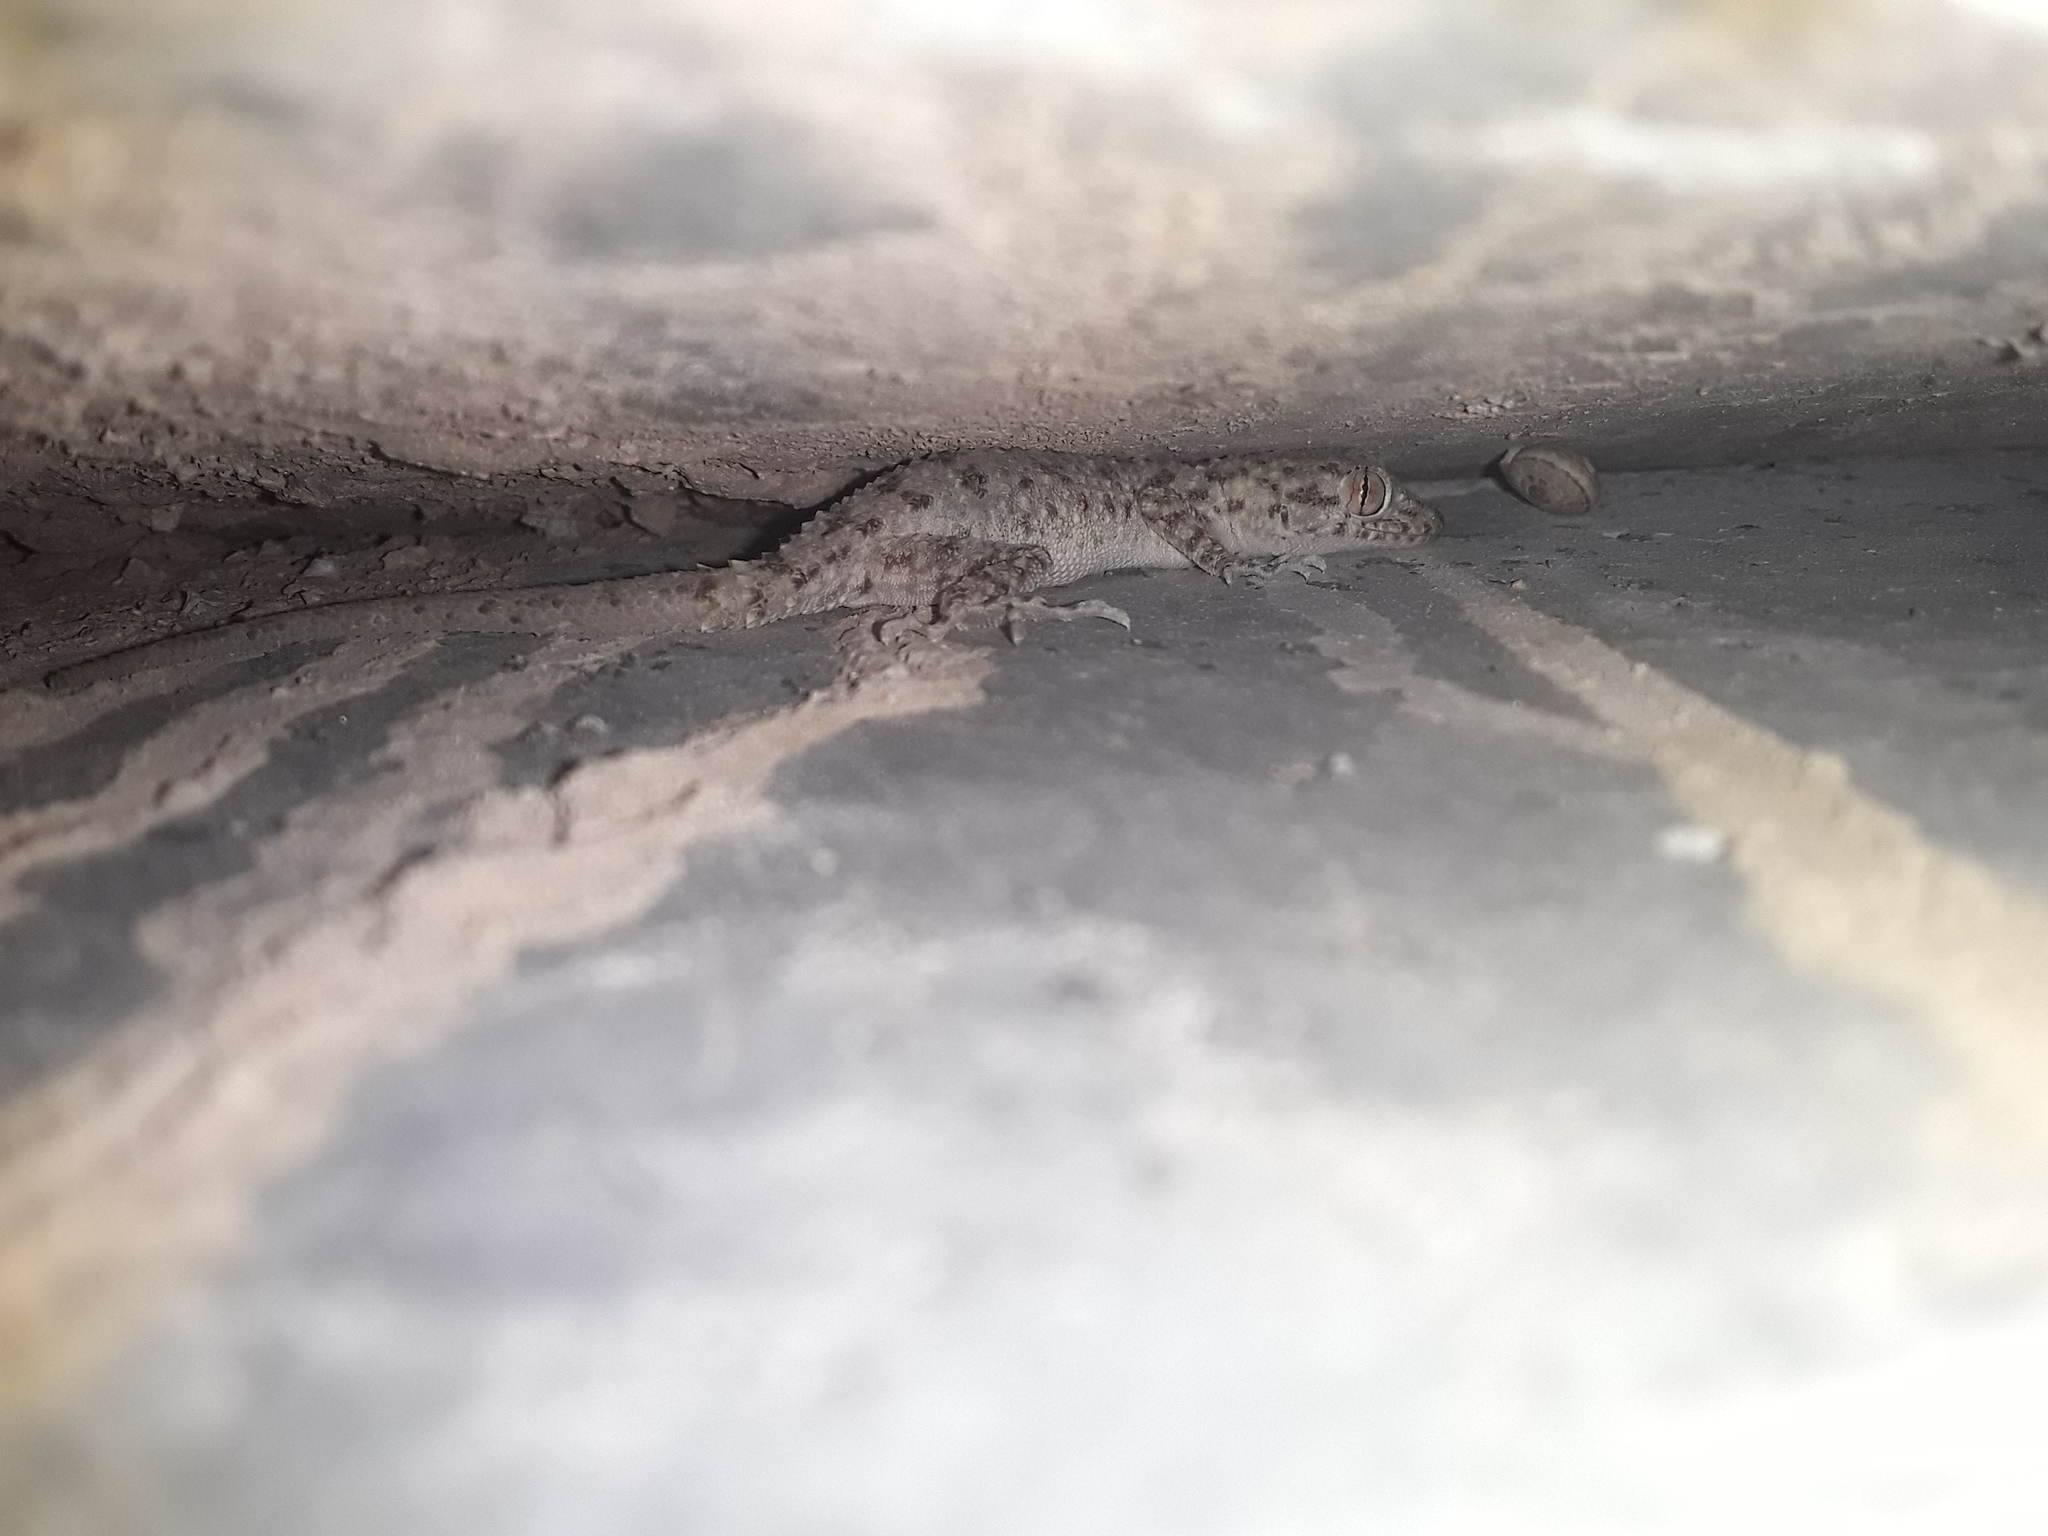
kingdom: Animalia
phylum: Chordata
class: Squamata
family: Gekkonidae
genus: Cyrtopodion
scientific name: Cyrtopodion scabrum
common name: Rough-tailed gecko
